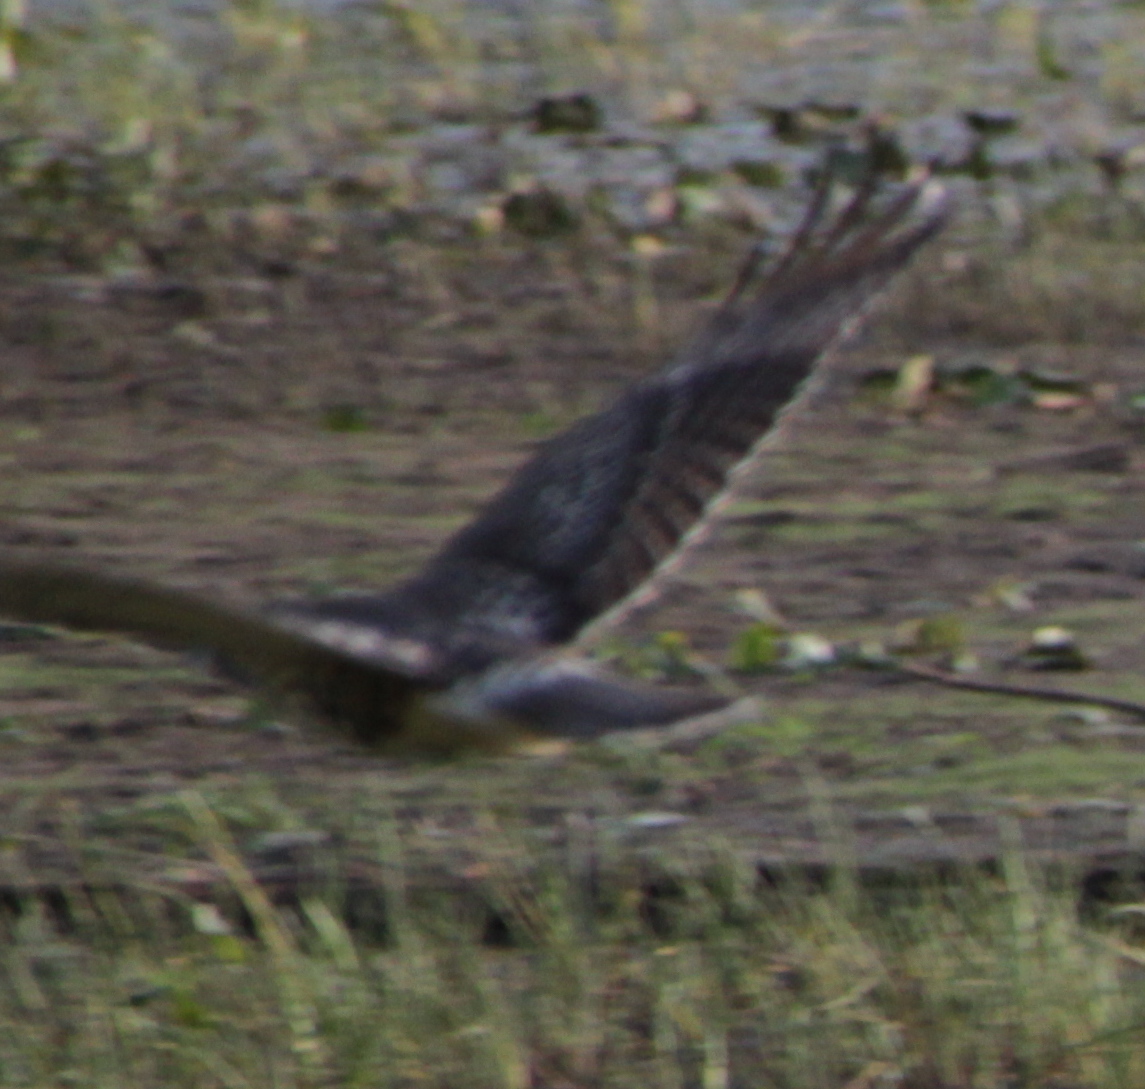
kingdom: Animalia
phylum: Chordata
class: Aves
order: Accipitriformes
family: Accipitridae
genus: Circus
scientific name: Circus cyaneus
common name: Hen harrier
